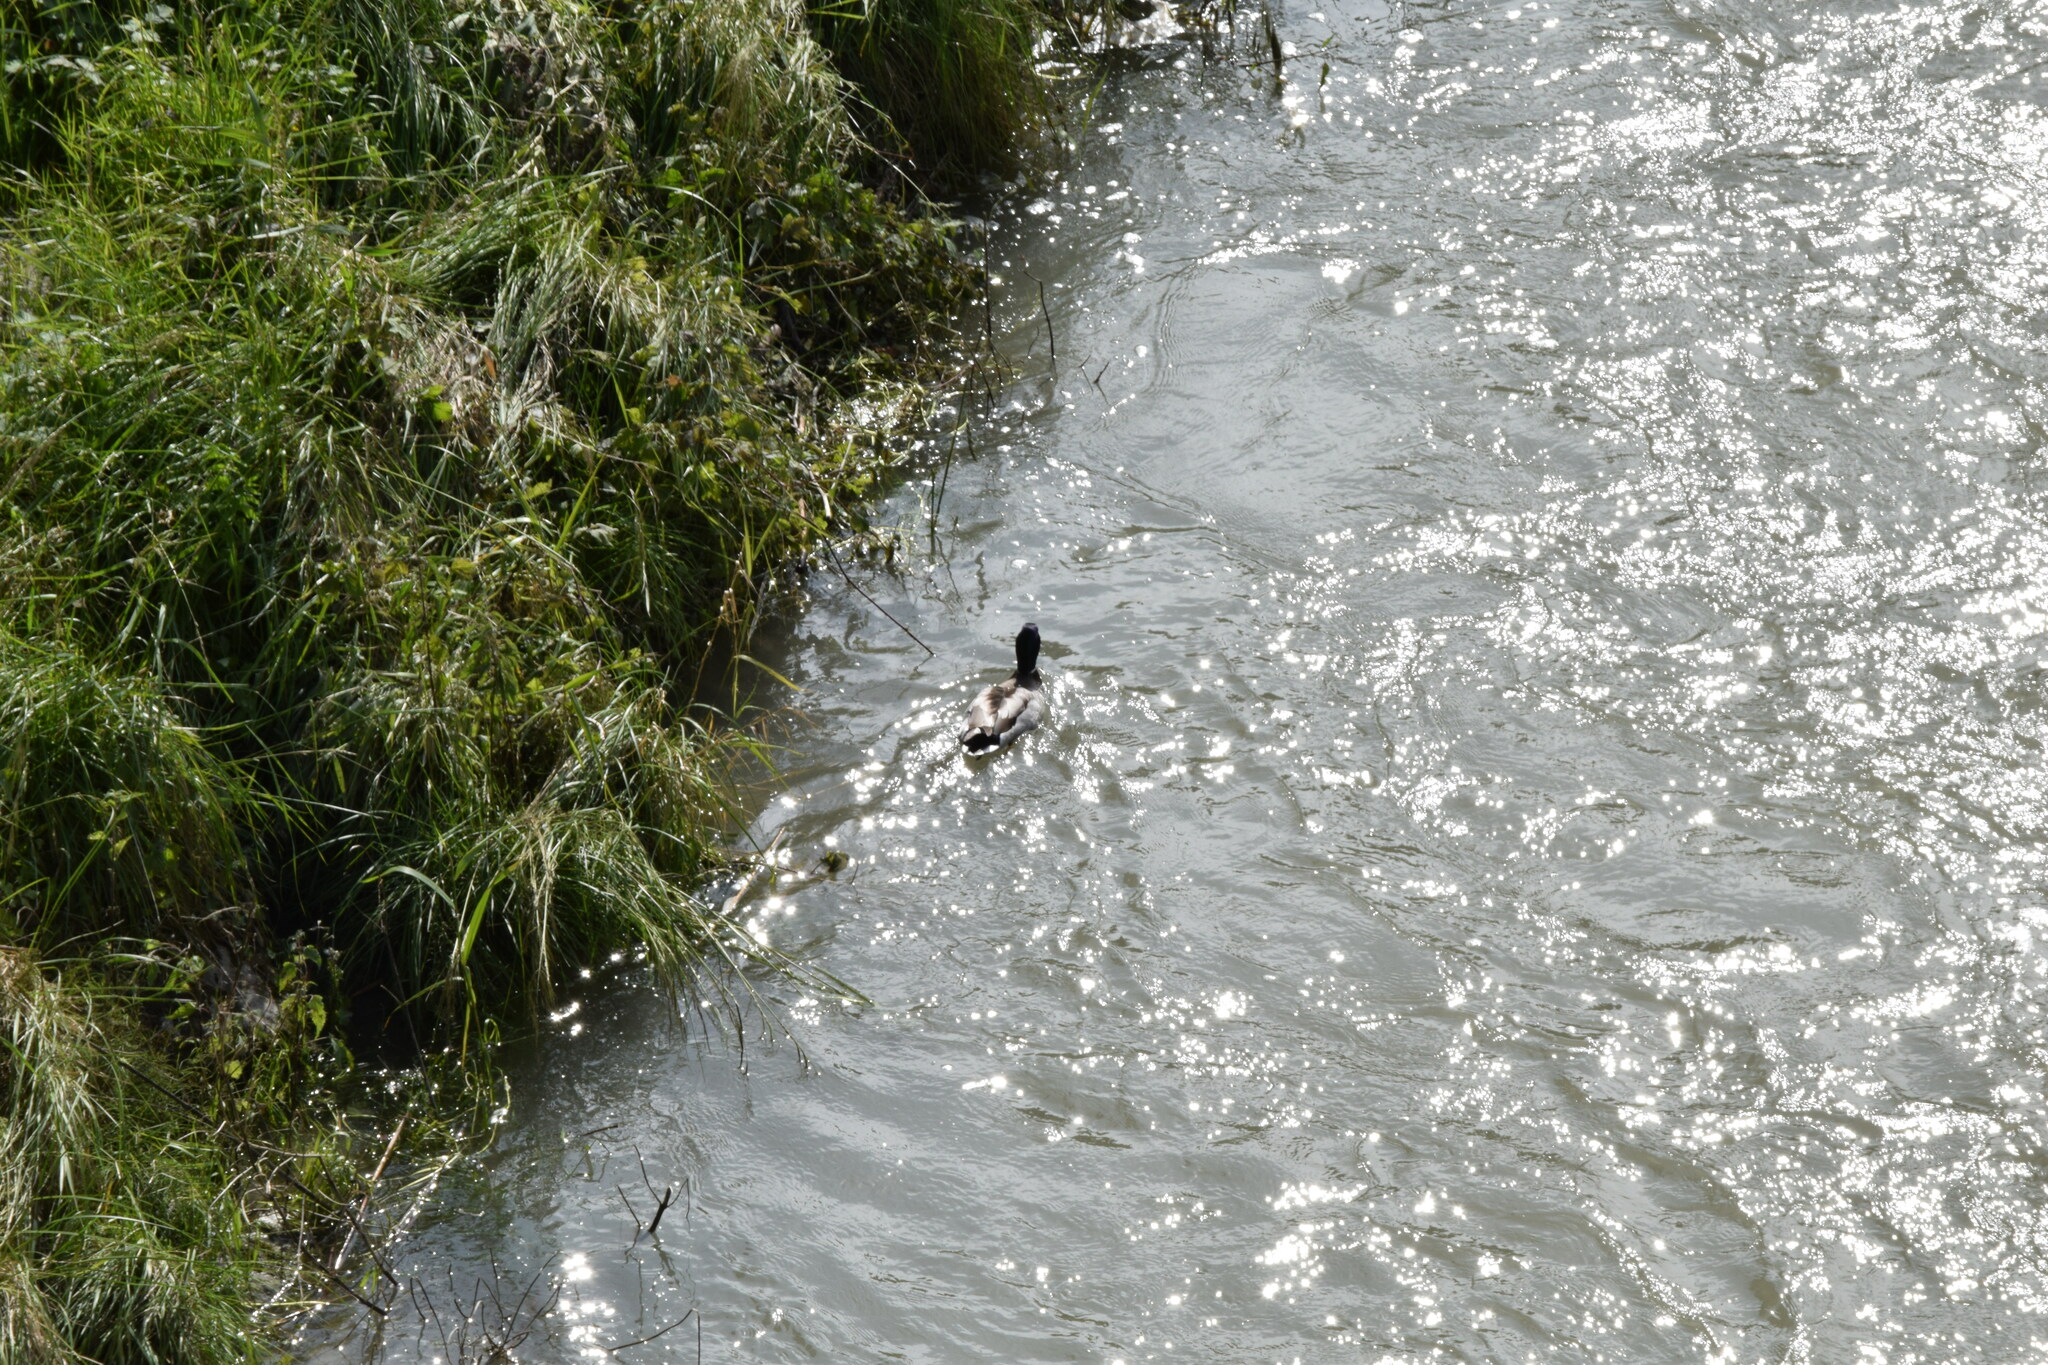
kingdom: Animalia
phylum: Chordata
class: Aves
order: Anseriformes
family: Anatidae
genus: Anas
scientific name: Anas platyrhynchos
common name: Mallard
